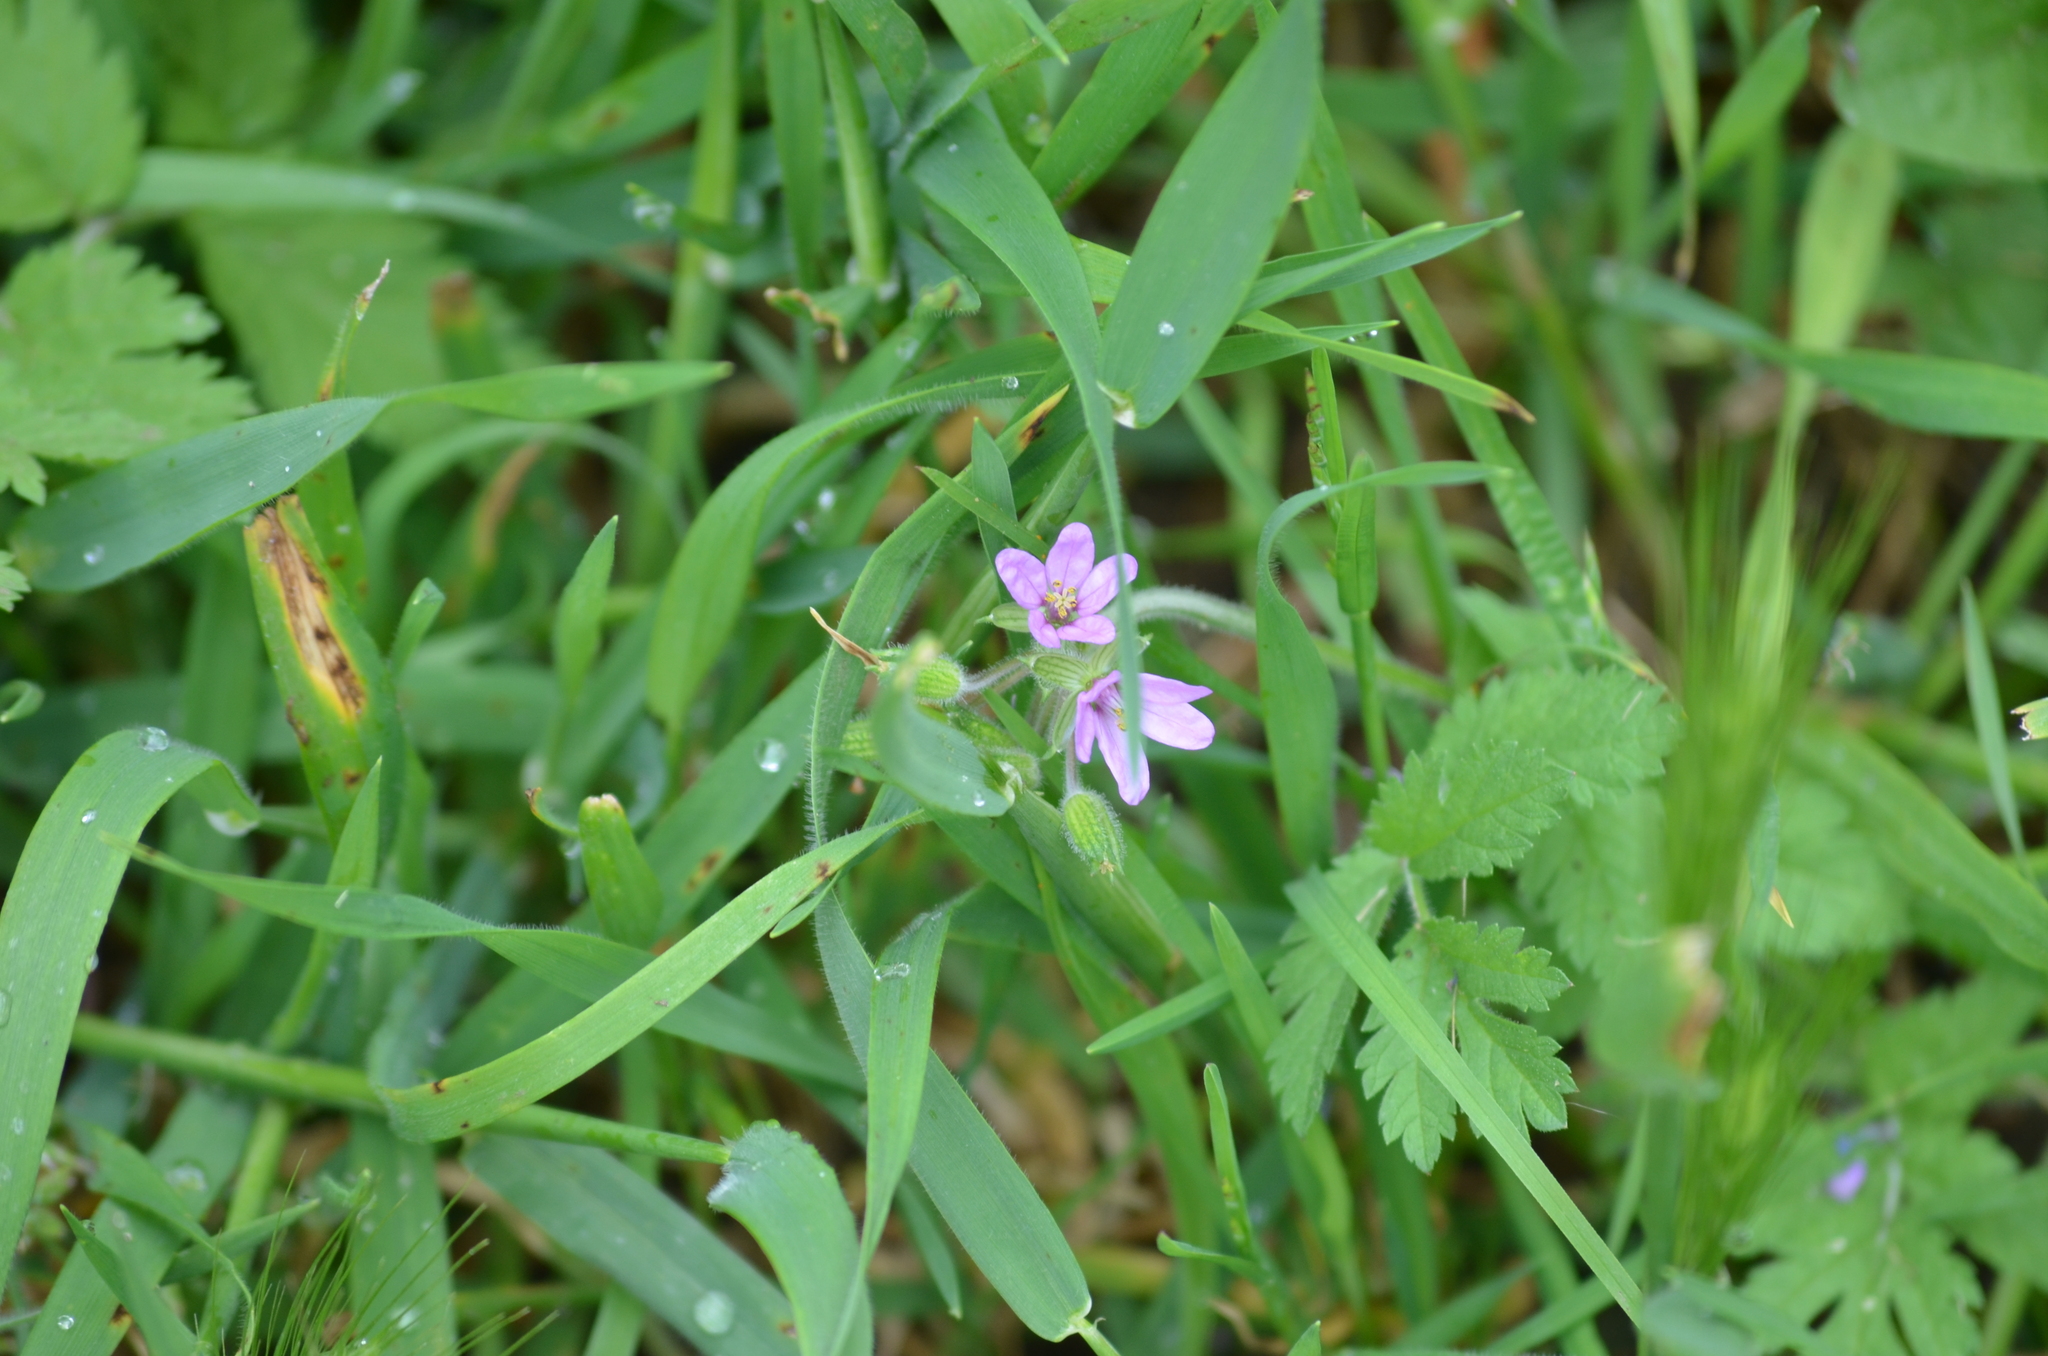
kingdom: Plantae
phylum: Tracheophyta
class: Magnoliopsida
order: Geraniales
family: Geraniaceae
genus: Erodium
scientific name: Erodium moschatum
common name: Musk stork's-bill
